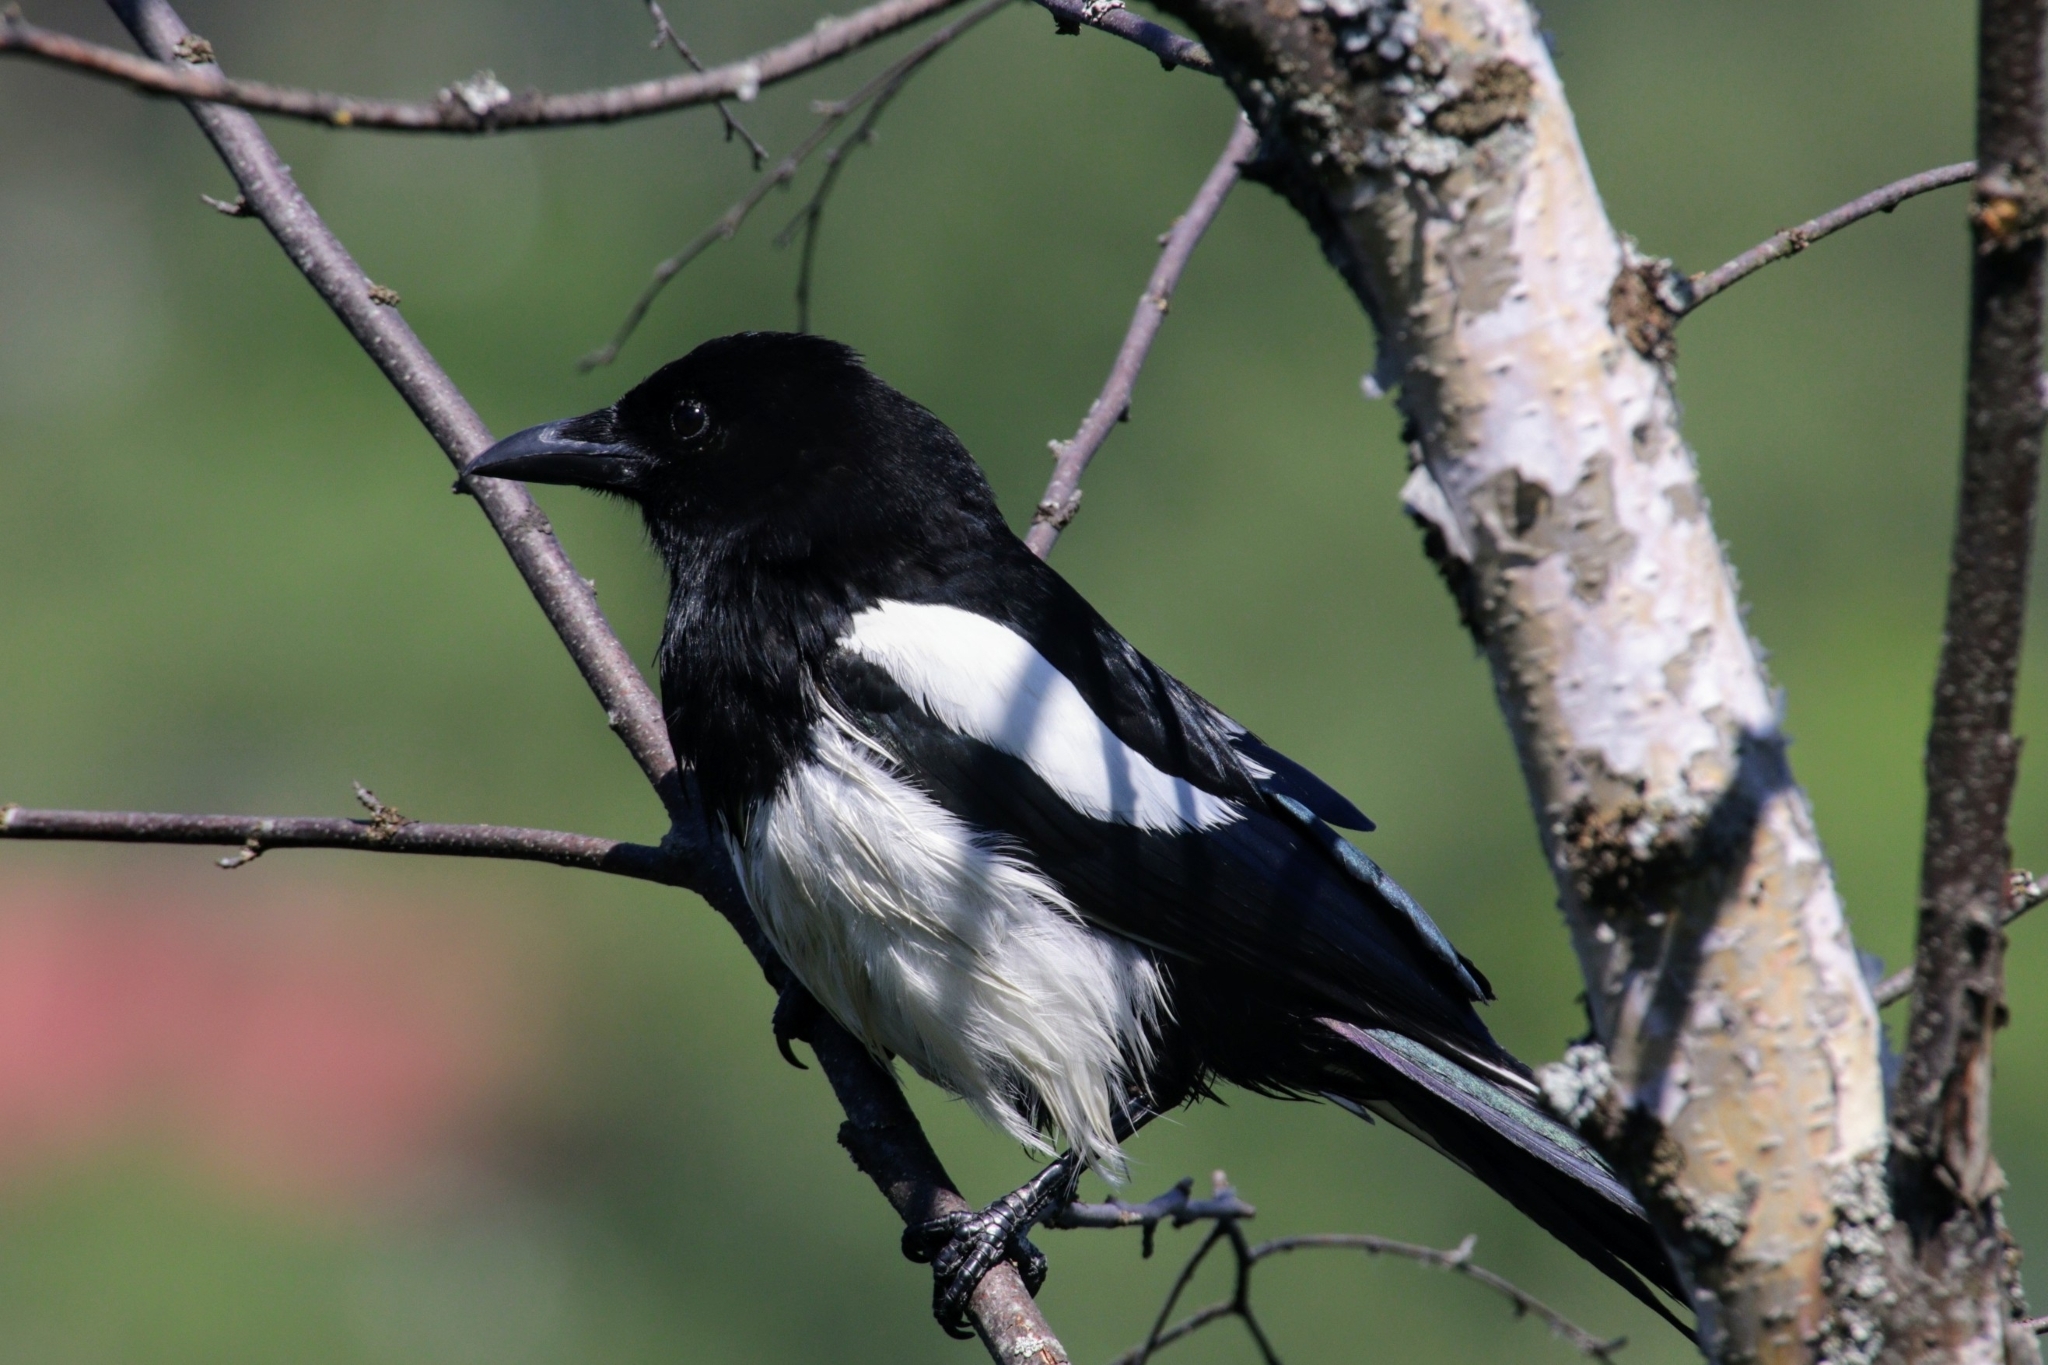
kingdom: Animalia
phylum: Chordata
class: Aves
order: Passeriformes
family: Corvidae
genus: Pica
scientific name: Pica pica
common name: Eurasian magpie
